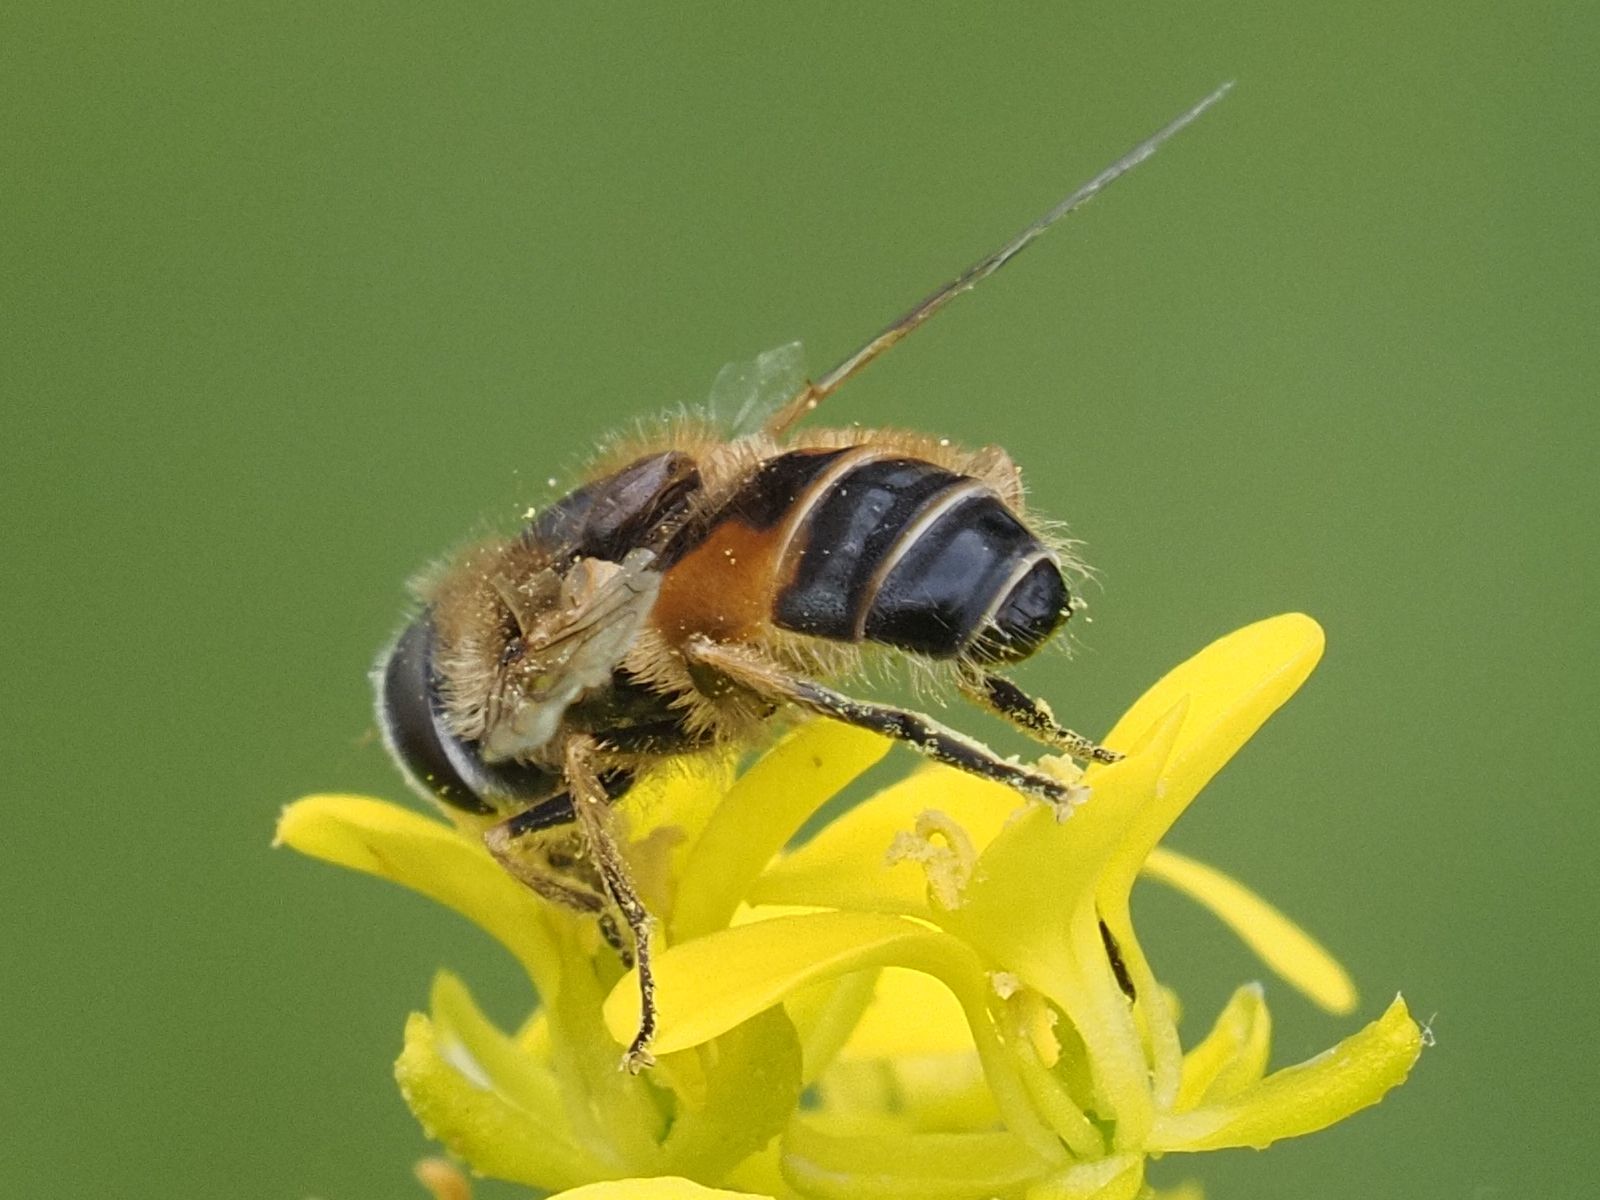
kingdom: Animalia
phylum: Arthropoda
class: Insecta
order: Diptera
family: Syrphidae
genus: Eristalis
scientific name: Eristalis arbustorum
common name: Hover fly
